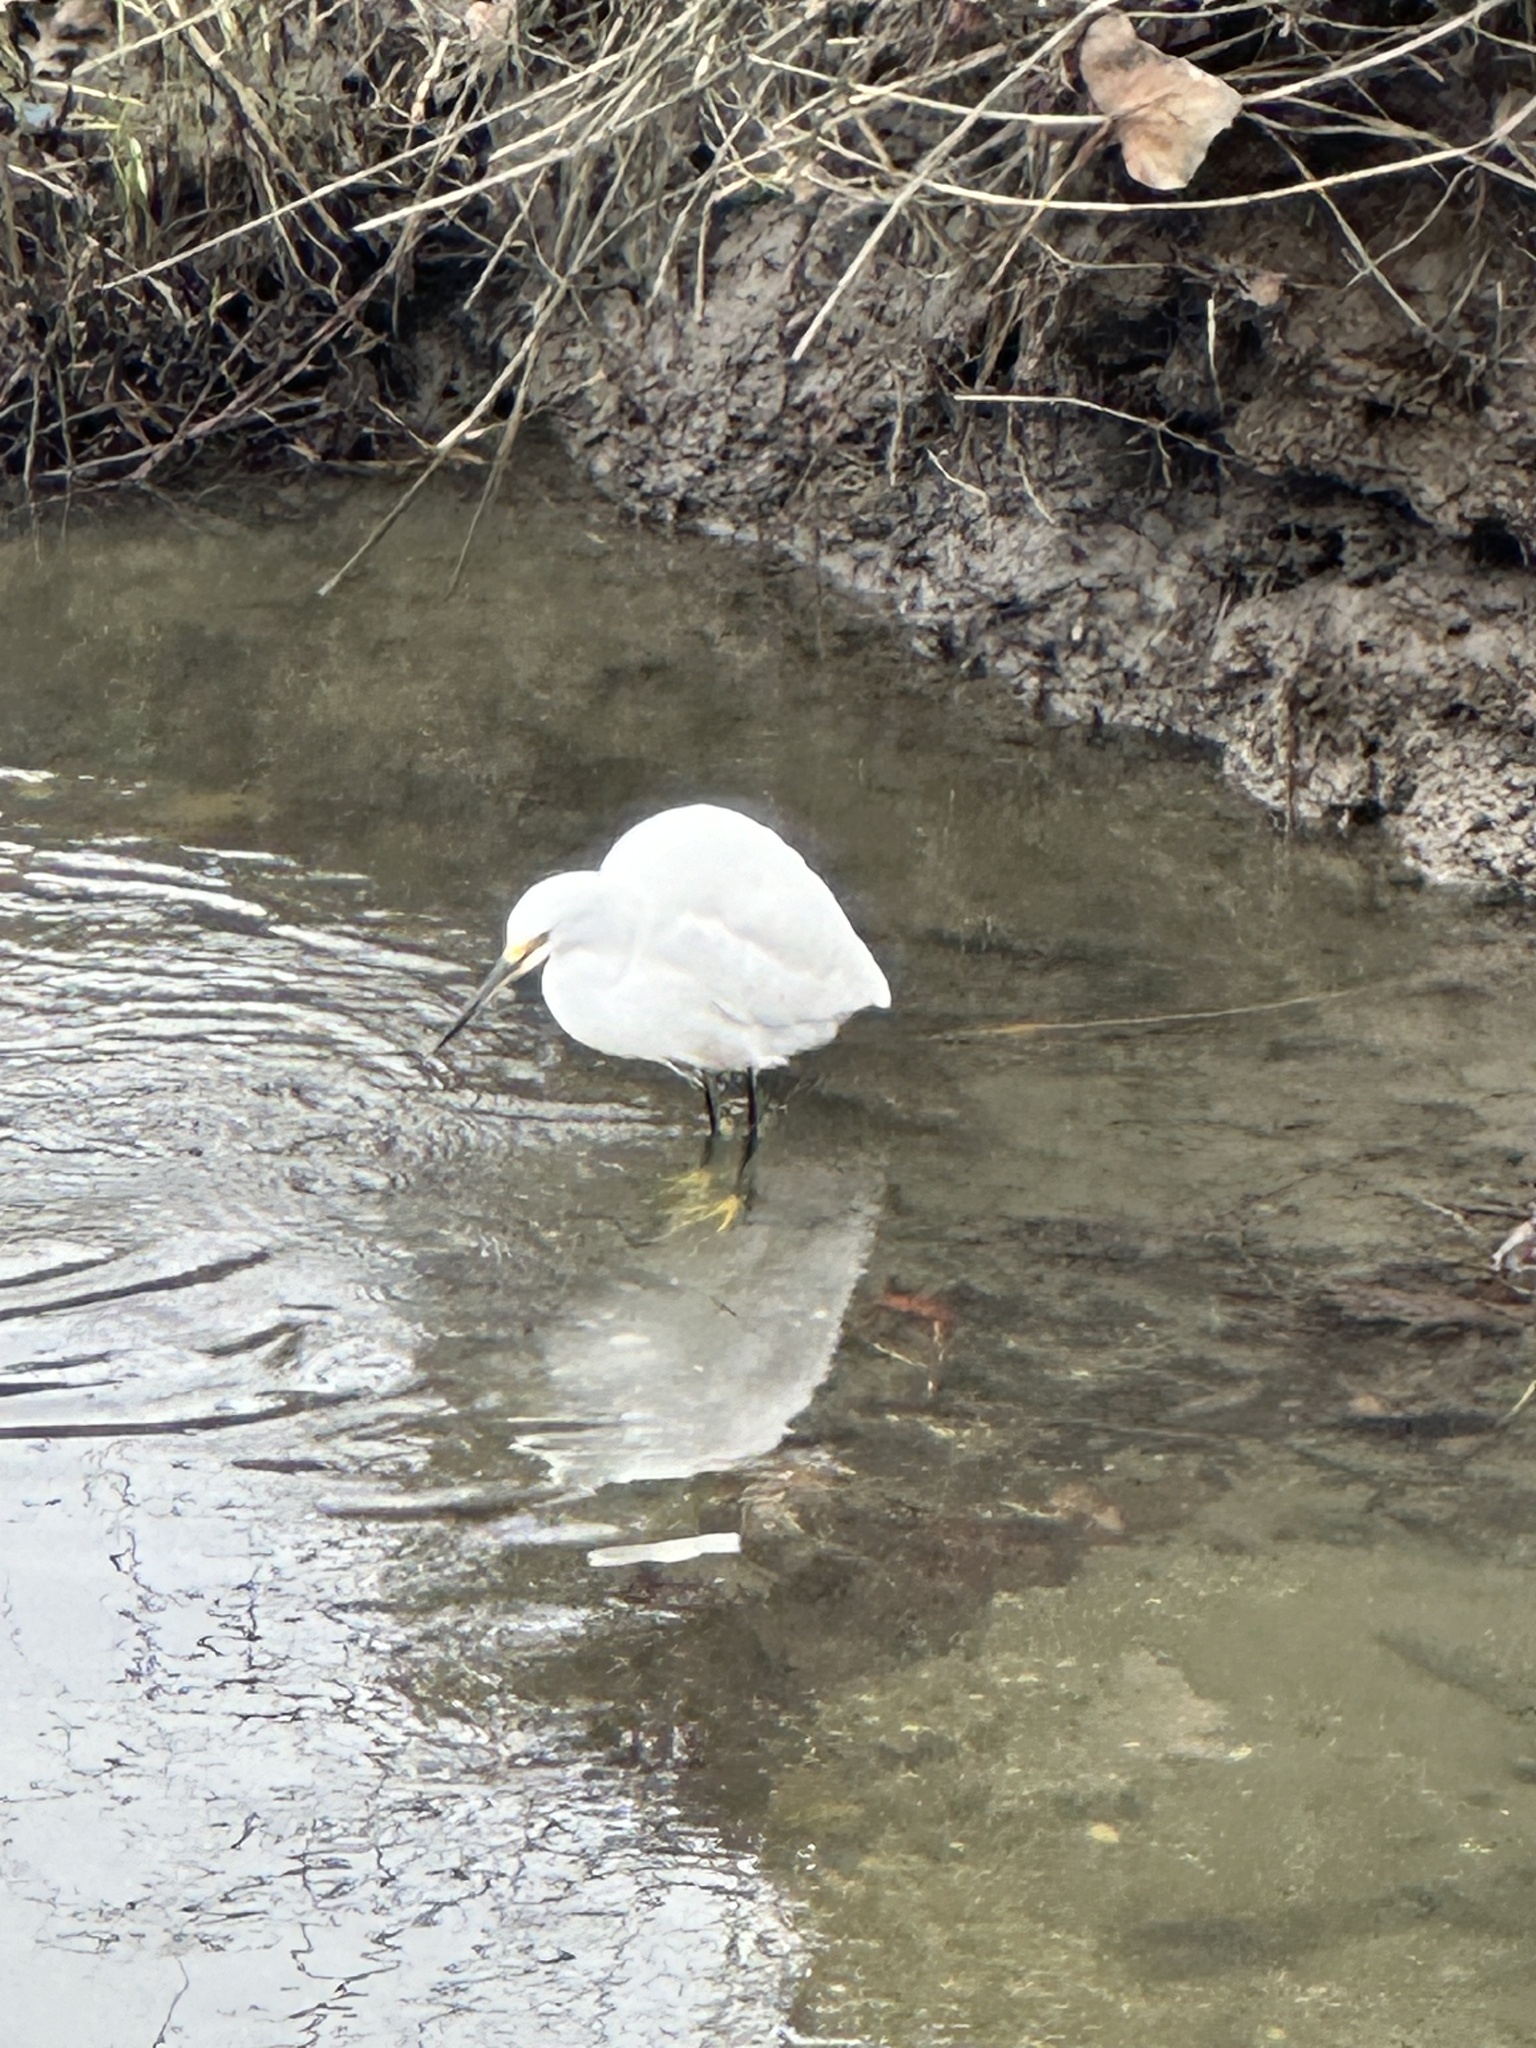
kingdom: Animalia
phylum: Chordata
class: Aves
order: Pelecaniformes
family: Ardeidae
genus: Egretta
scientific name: Egretta thula
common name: Snowy egret
